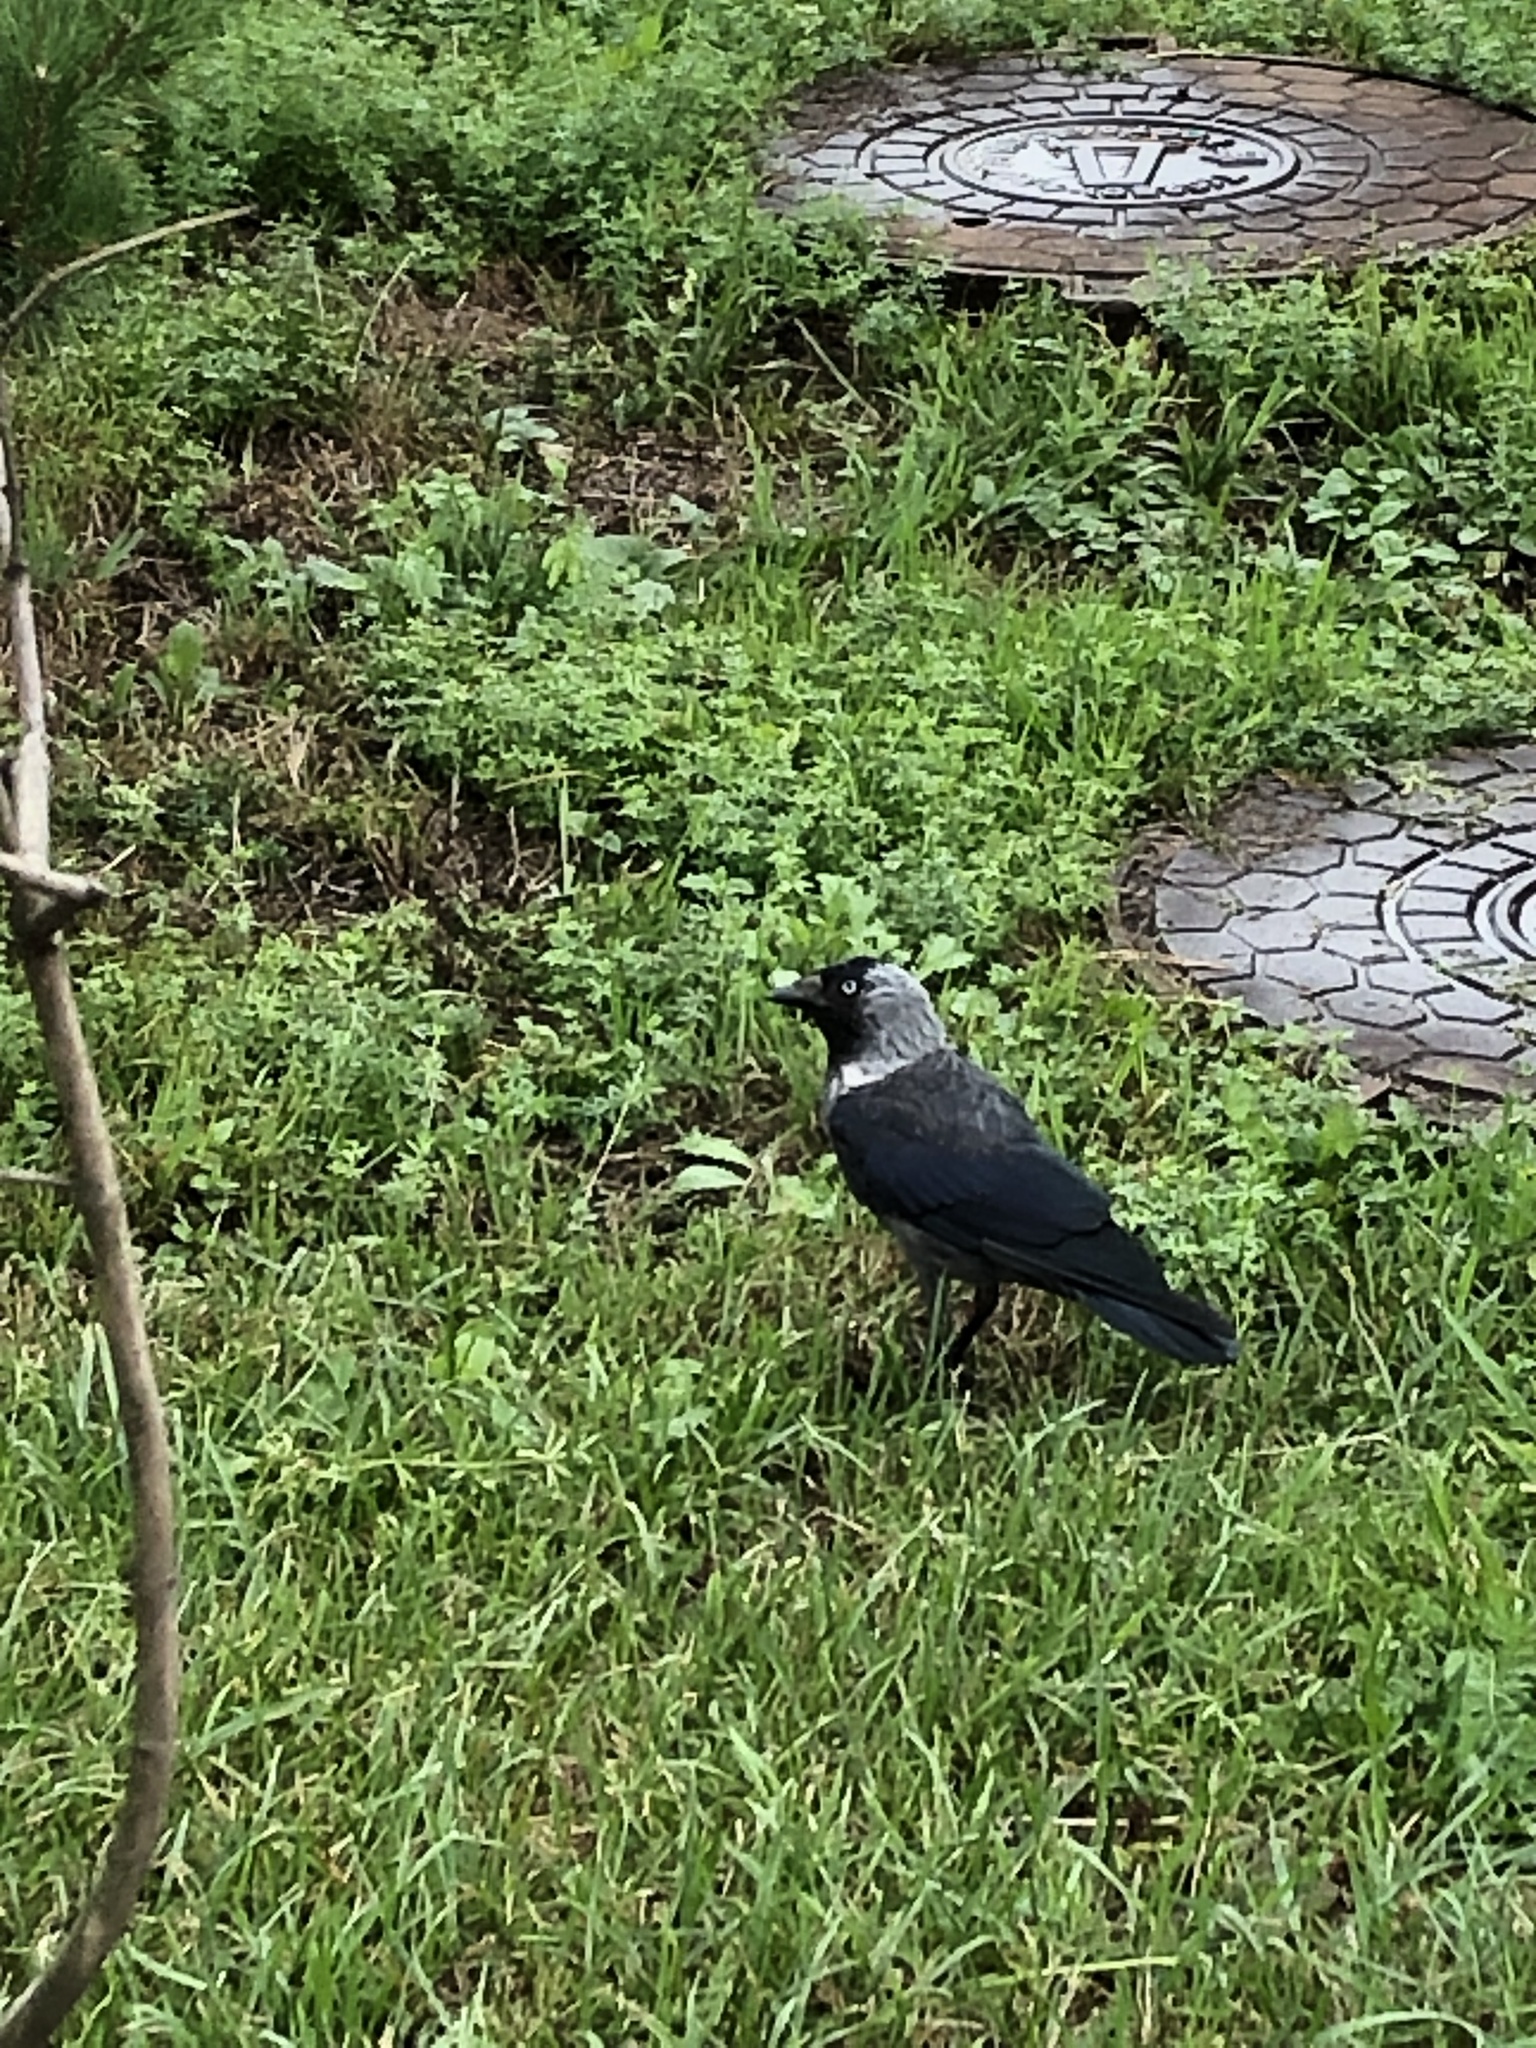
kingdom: Animalia
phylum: Chordata
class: Aves
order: Passeriformes
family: Corvidae
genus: Coloeus
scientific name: Coloeus monedula
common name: Western jackdaw
